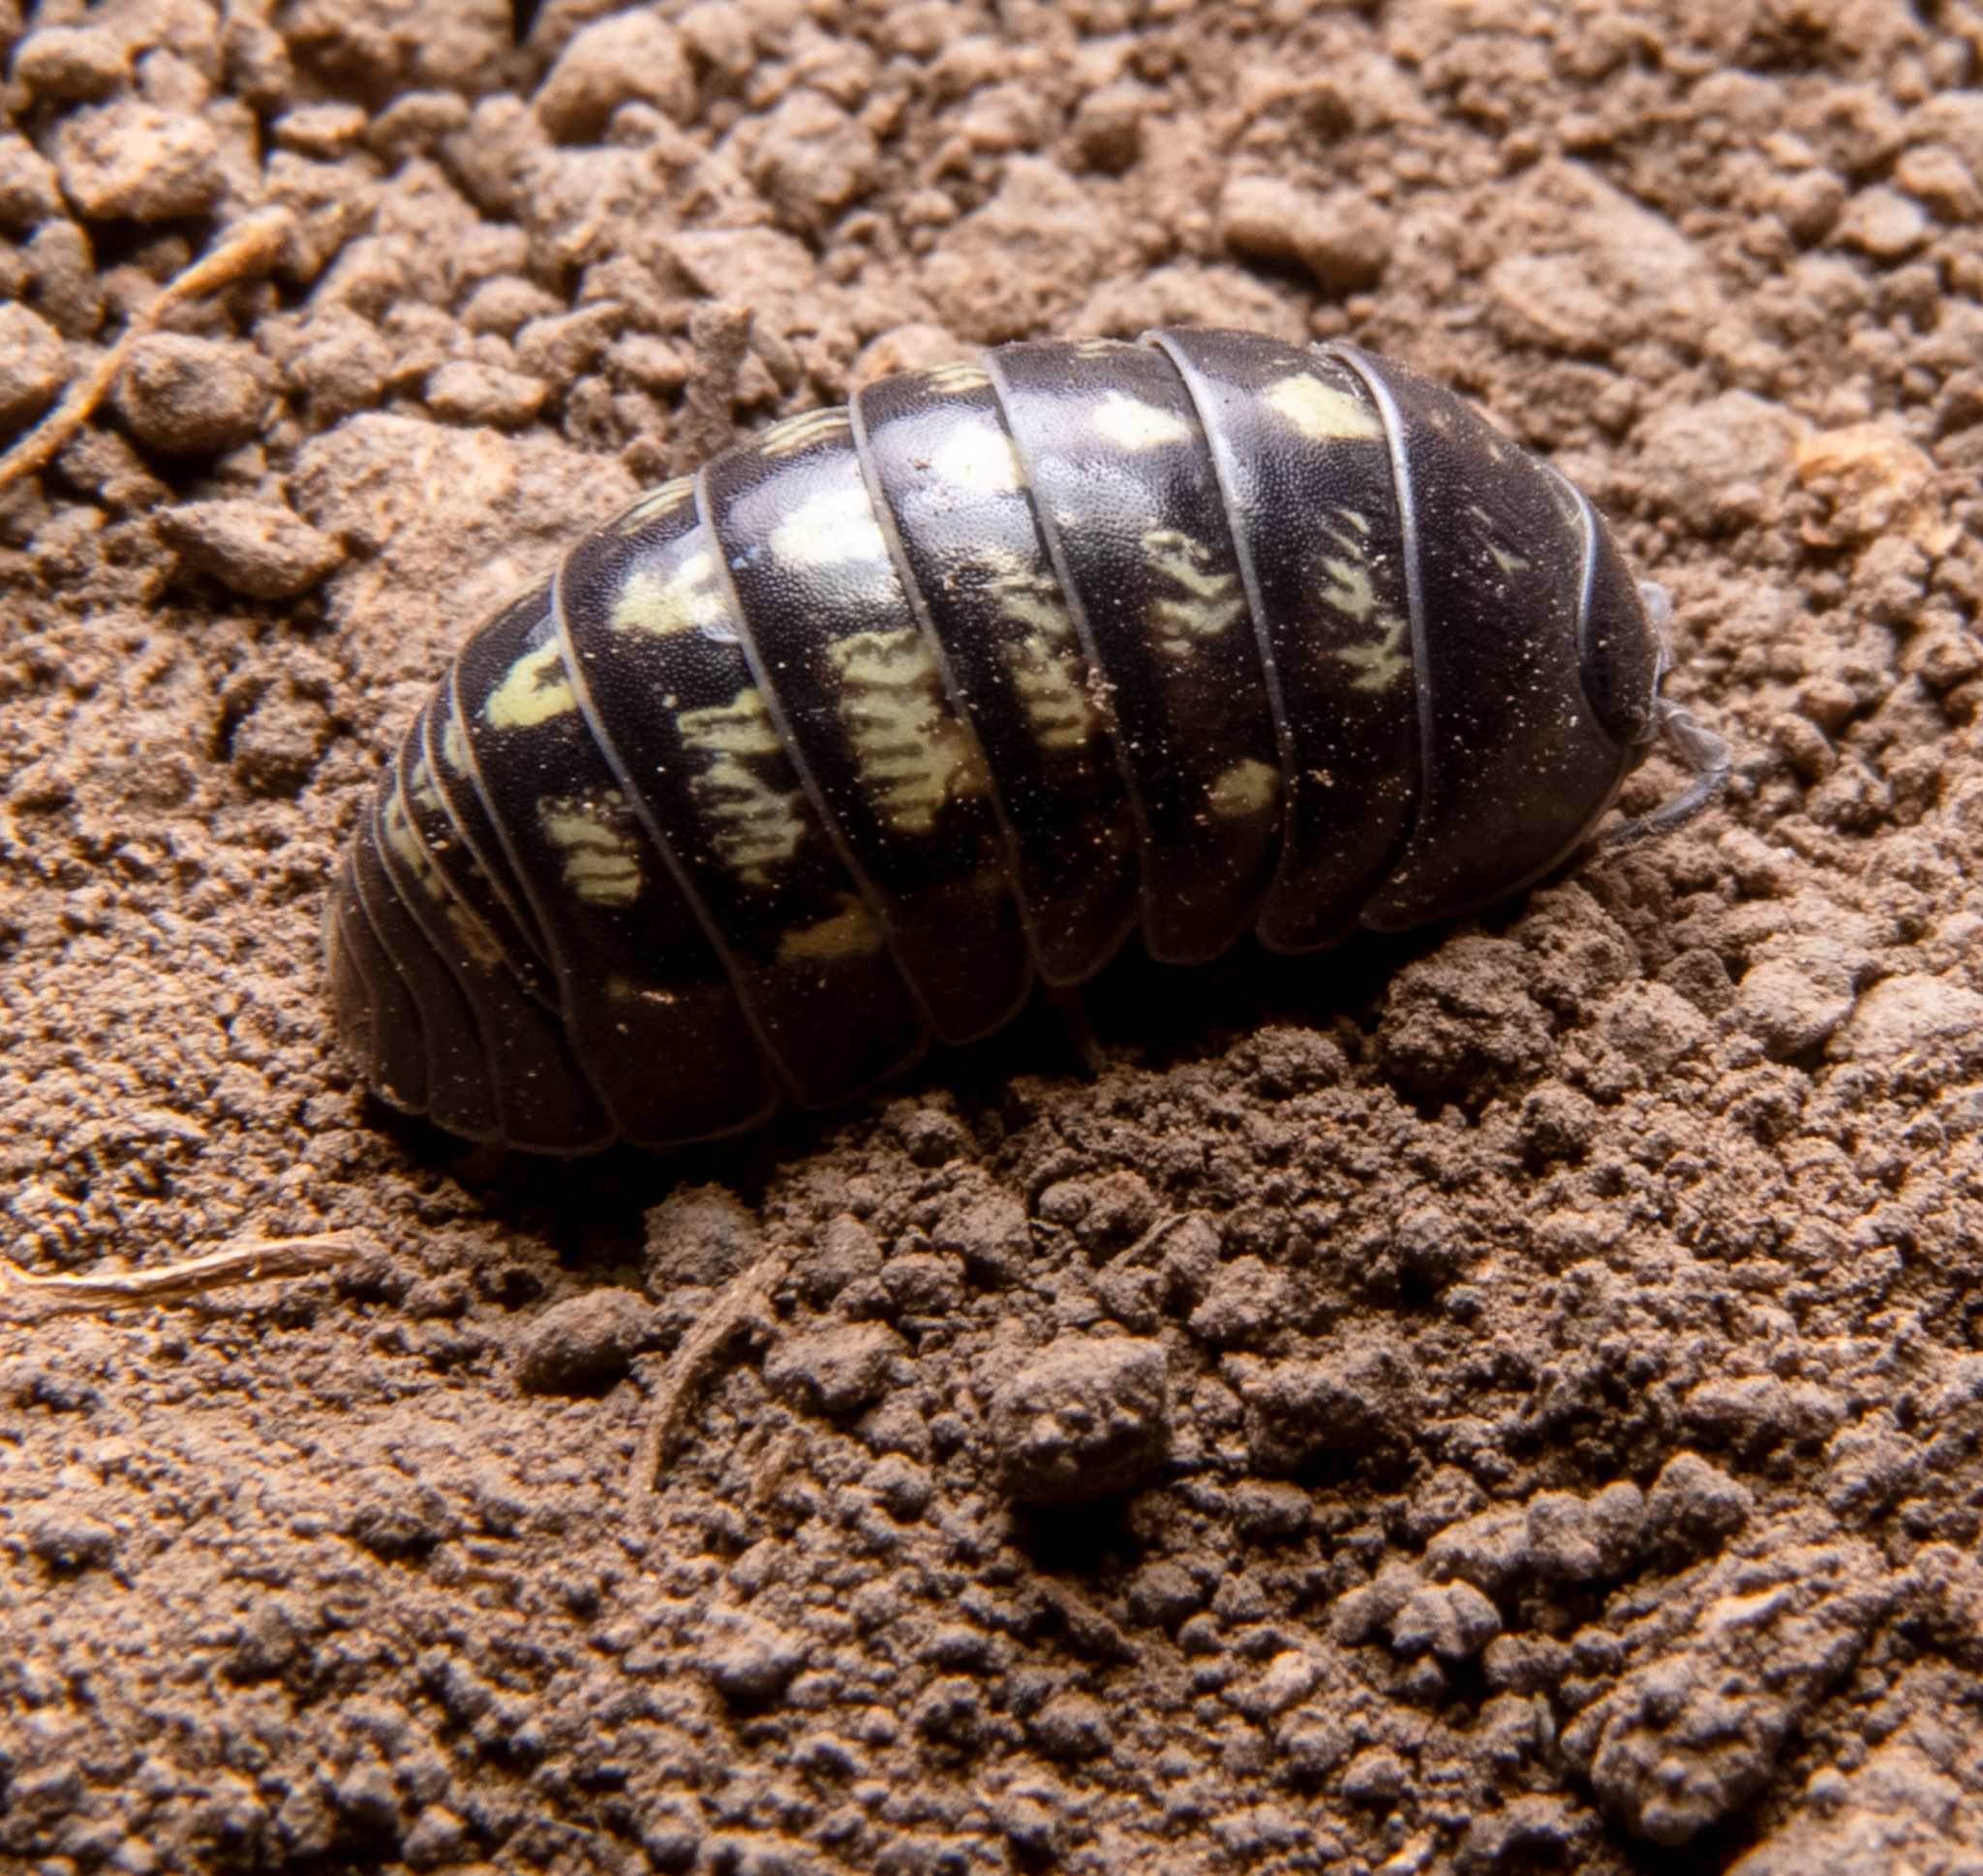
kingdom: Animalia
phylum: Arthropoda
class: Malacostraca
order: Isopoda
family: Armadillidiidae
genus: Armadillidium
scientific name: Armadillidium vulgare
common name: Common pill woodlouse
